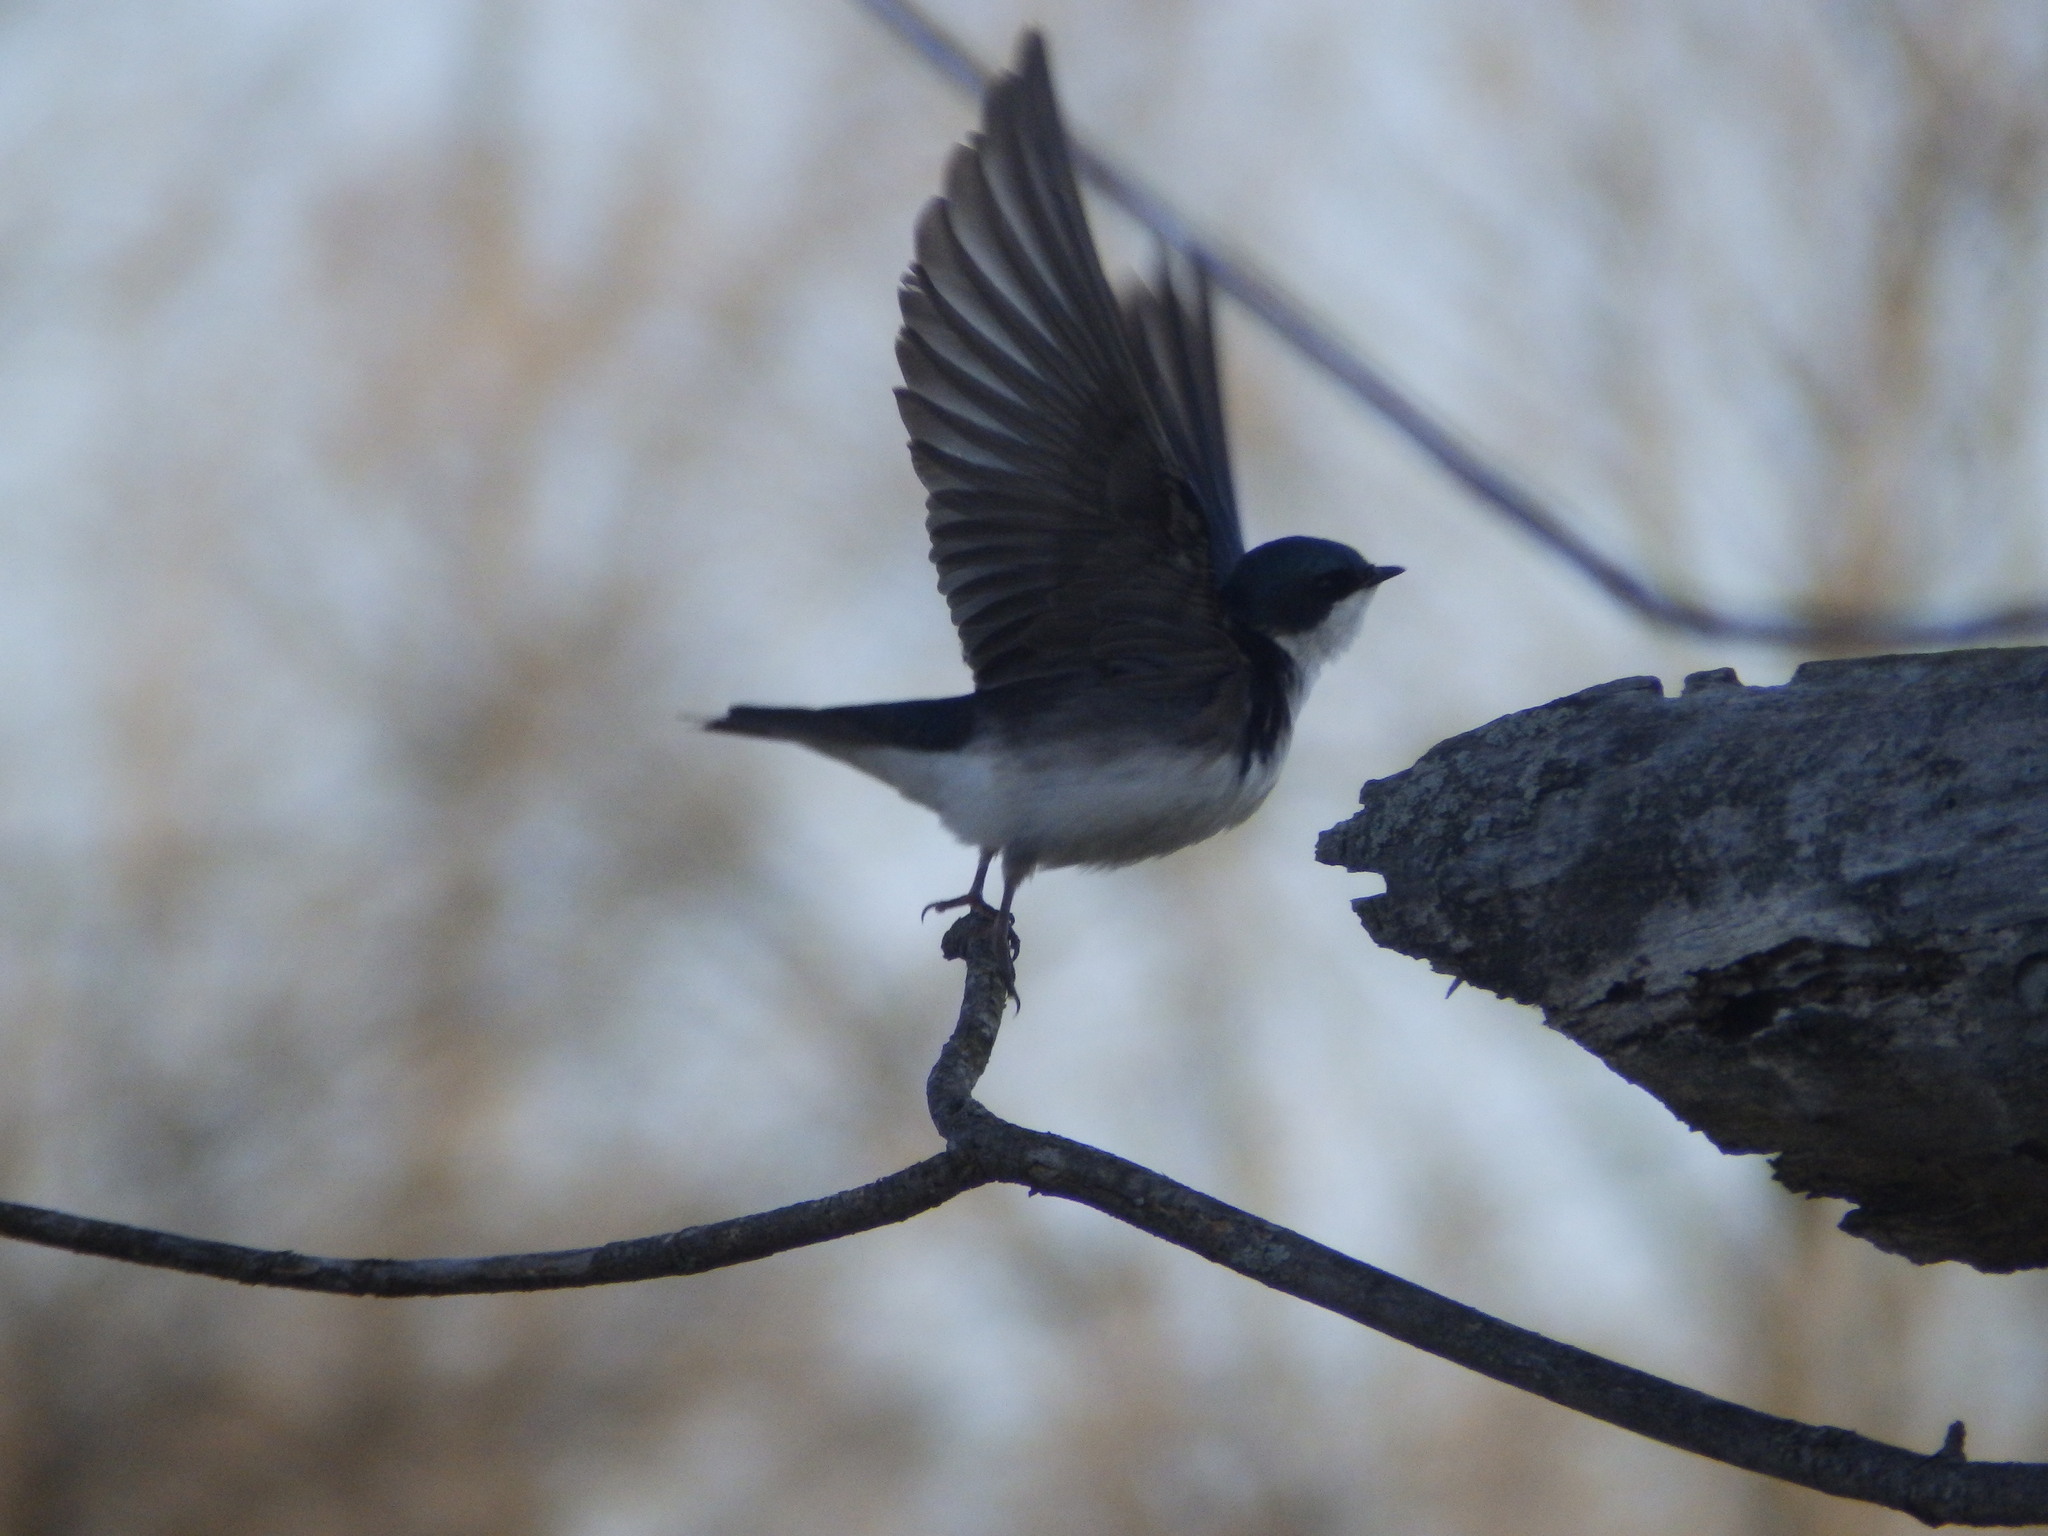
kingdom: Animalia
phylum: Chordata
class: Aves
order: Passeriformes
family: Hirundinidae
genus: Tachycineta
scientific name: Tachycineta bicolor
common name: Tree swallow
